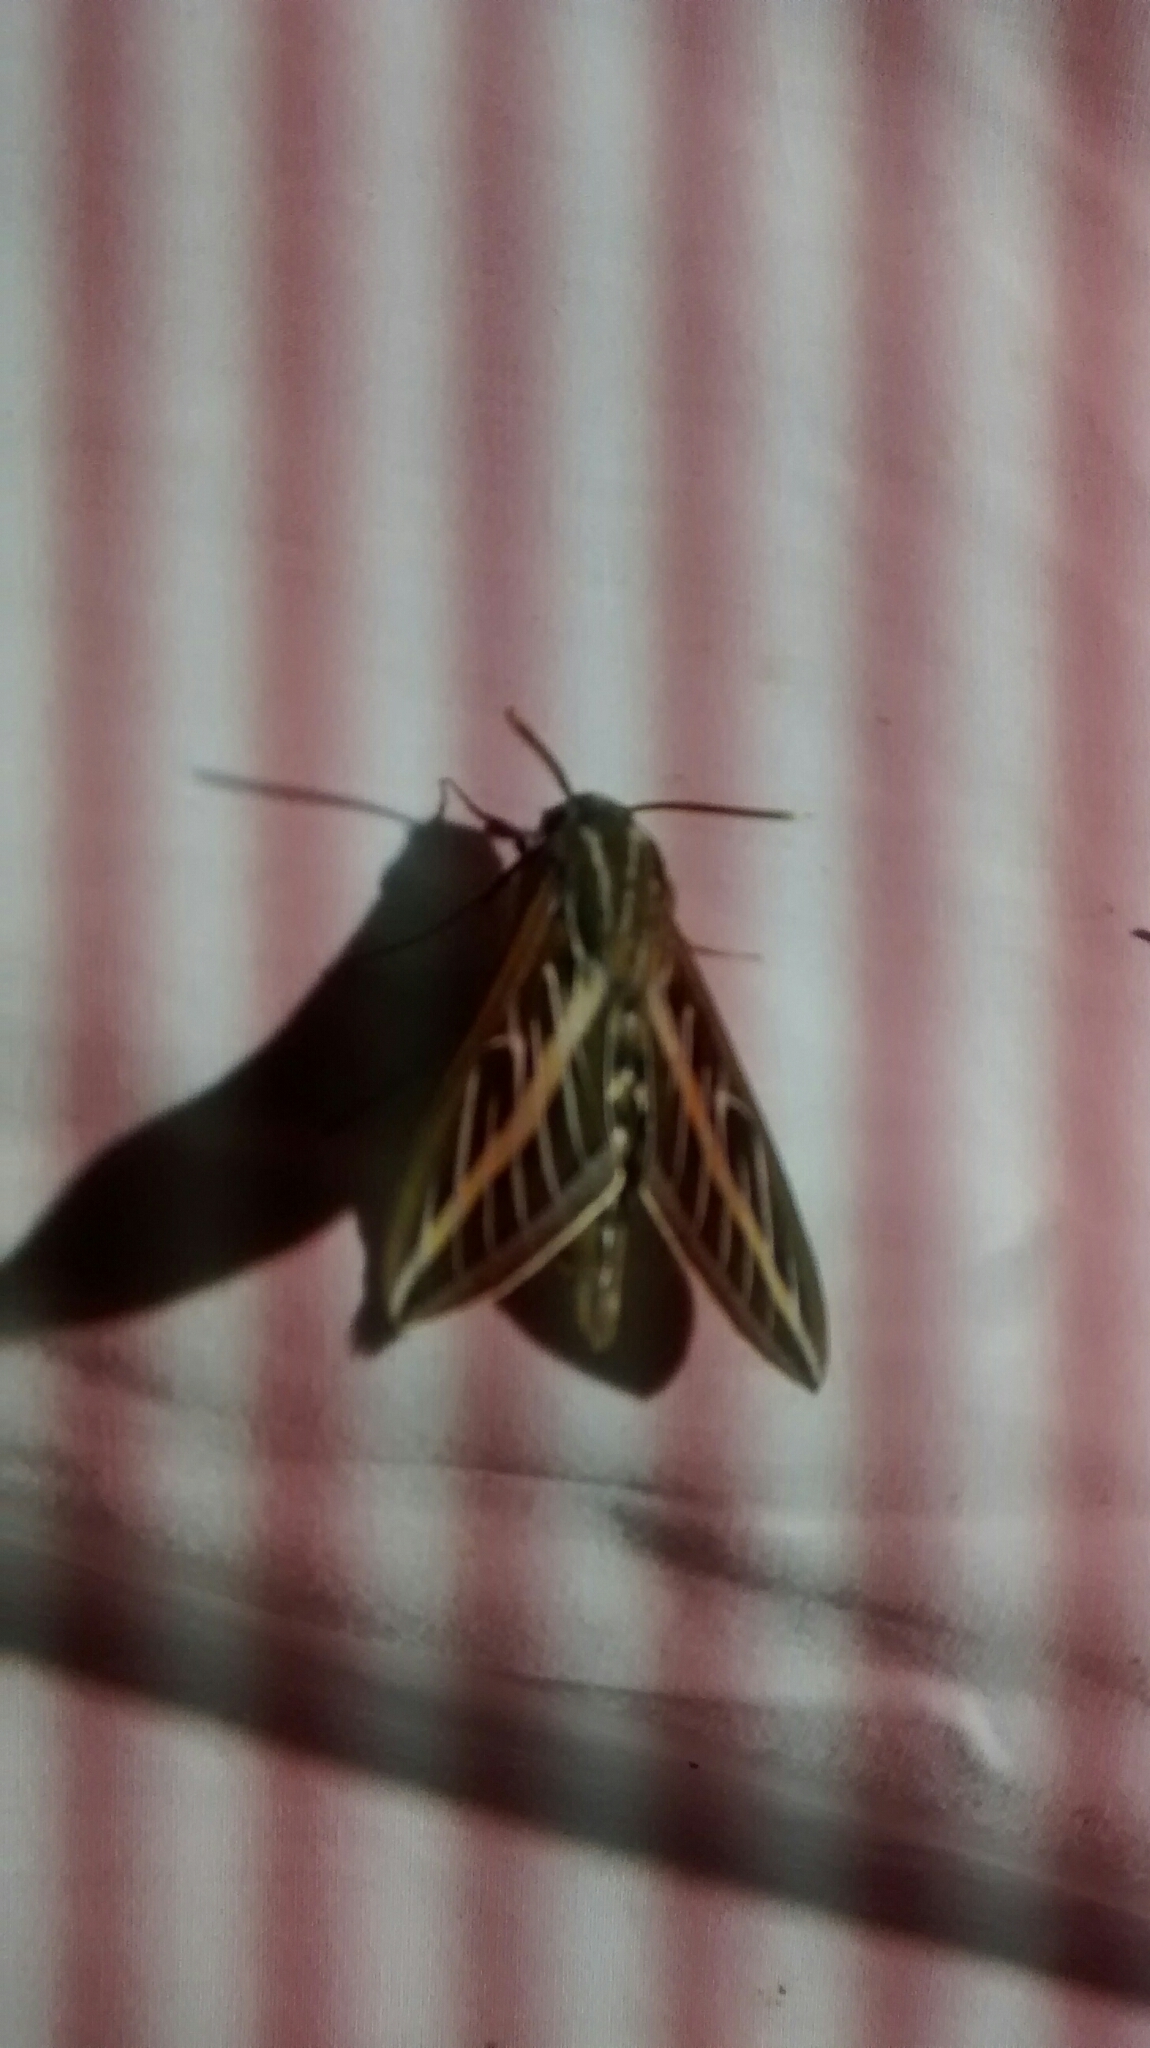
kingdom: Animalia
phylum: Arthropoda
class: Insecta
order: Lepidoptera
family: Sphingidae
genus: Hyles
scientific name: Hyles lineata
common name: White-lined sphinx
